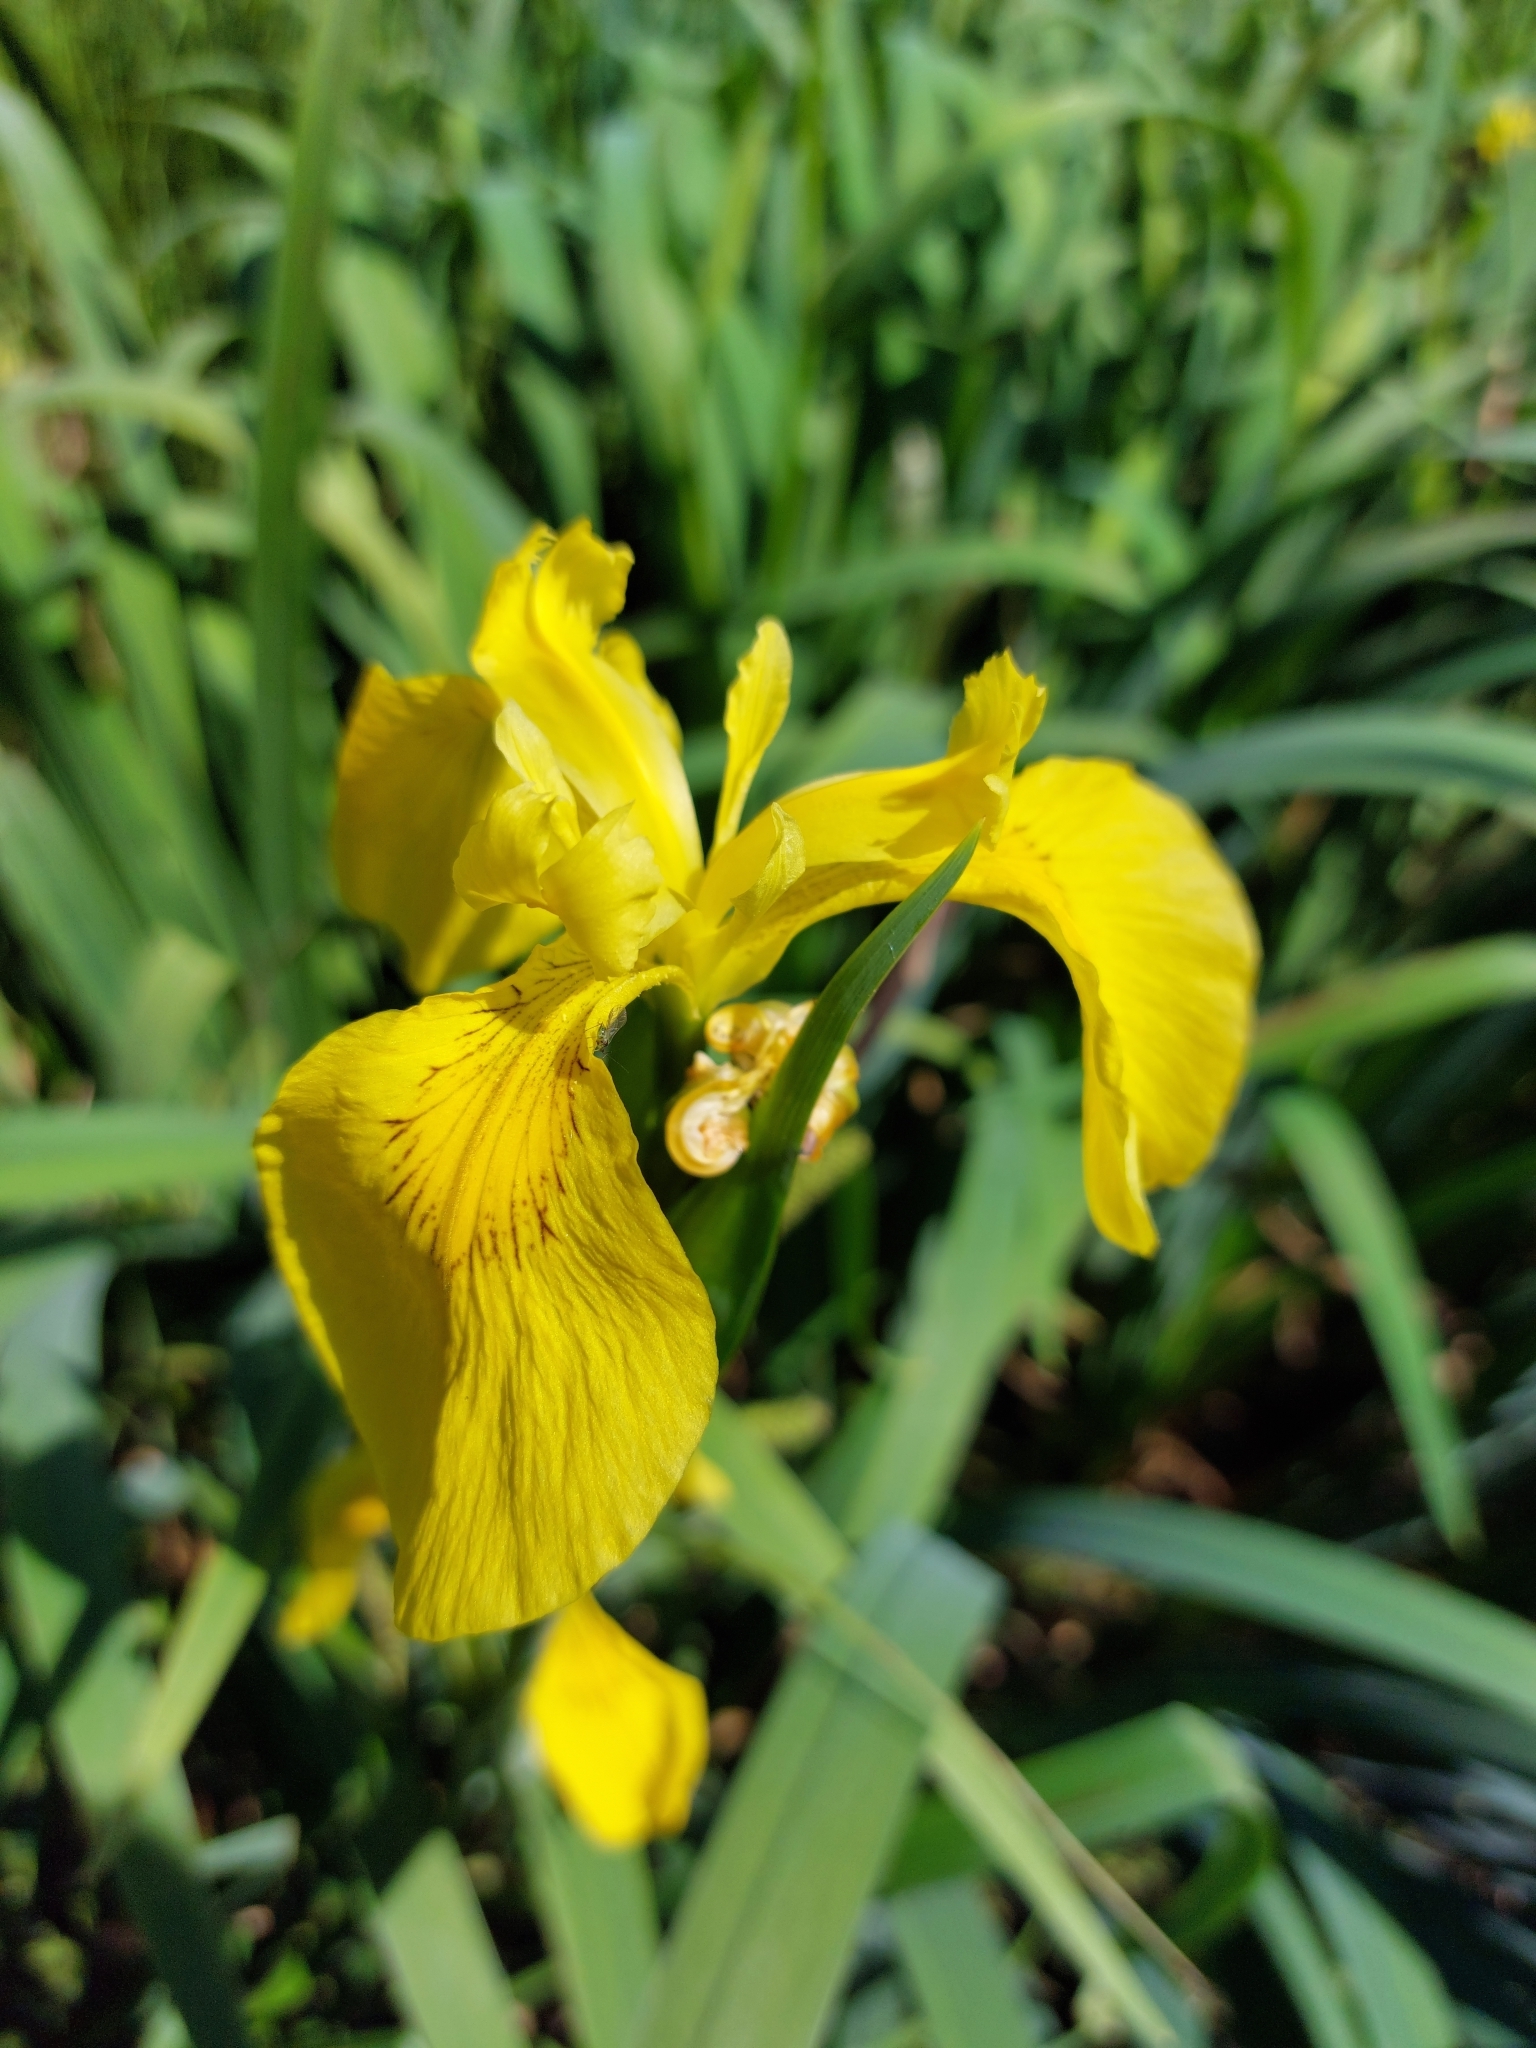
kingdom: Plantae
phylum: Tracheophyta
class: Liliopsida
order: Asparagales
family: Iridaceae
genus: Iris
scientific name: Iris pseudacorus
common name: Yellow flag
